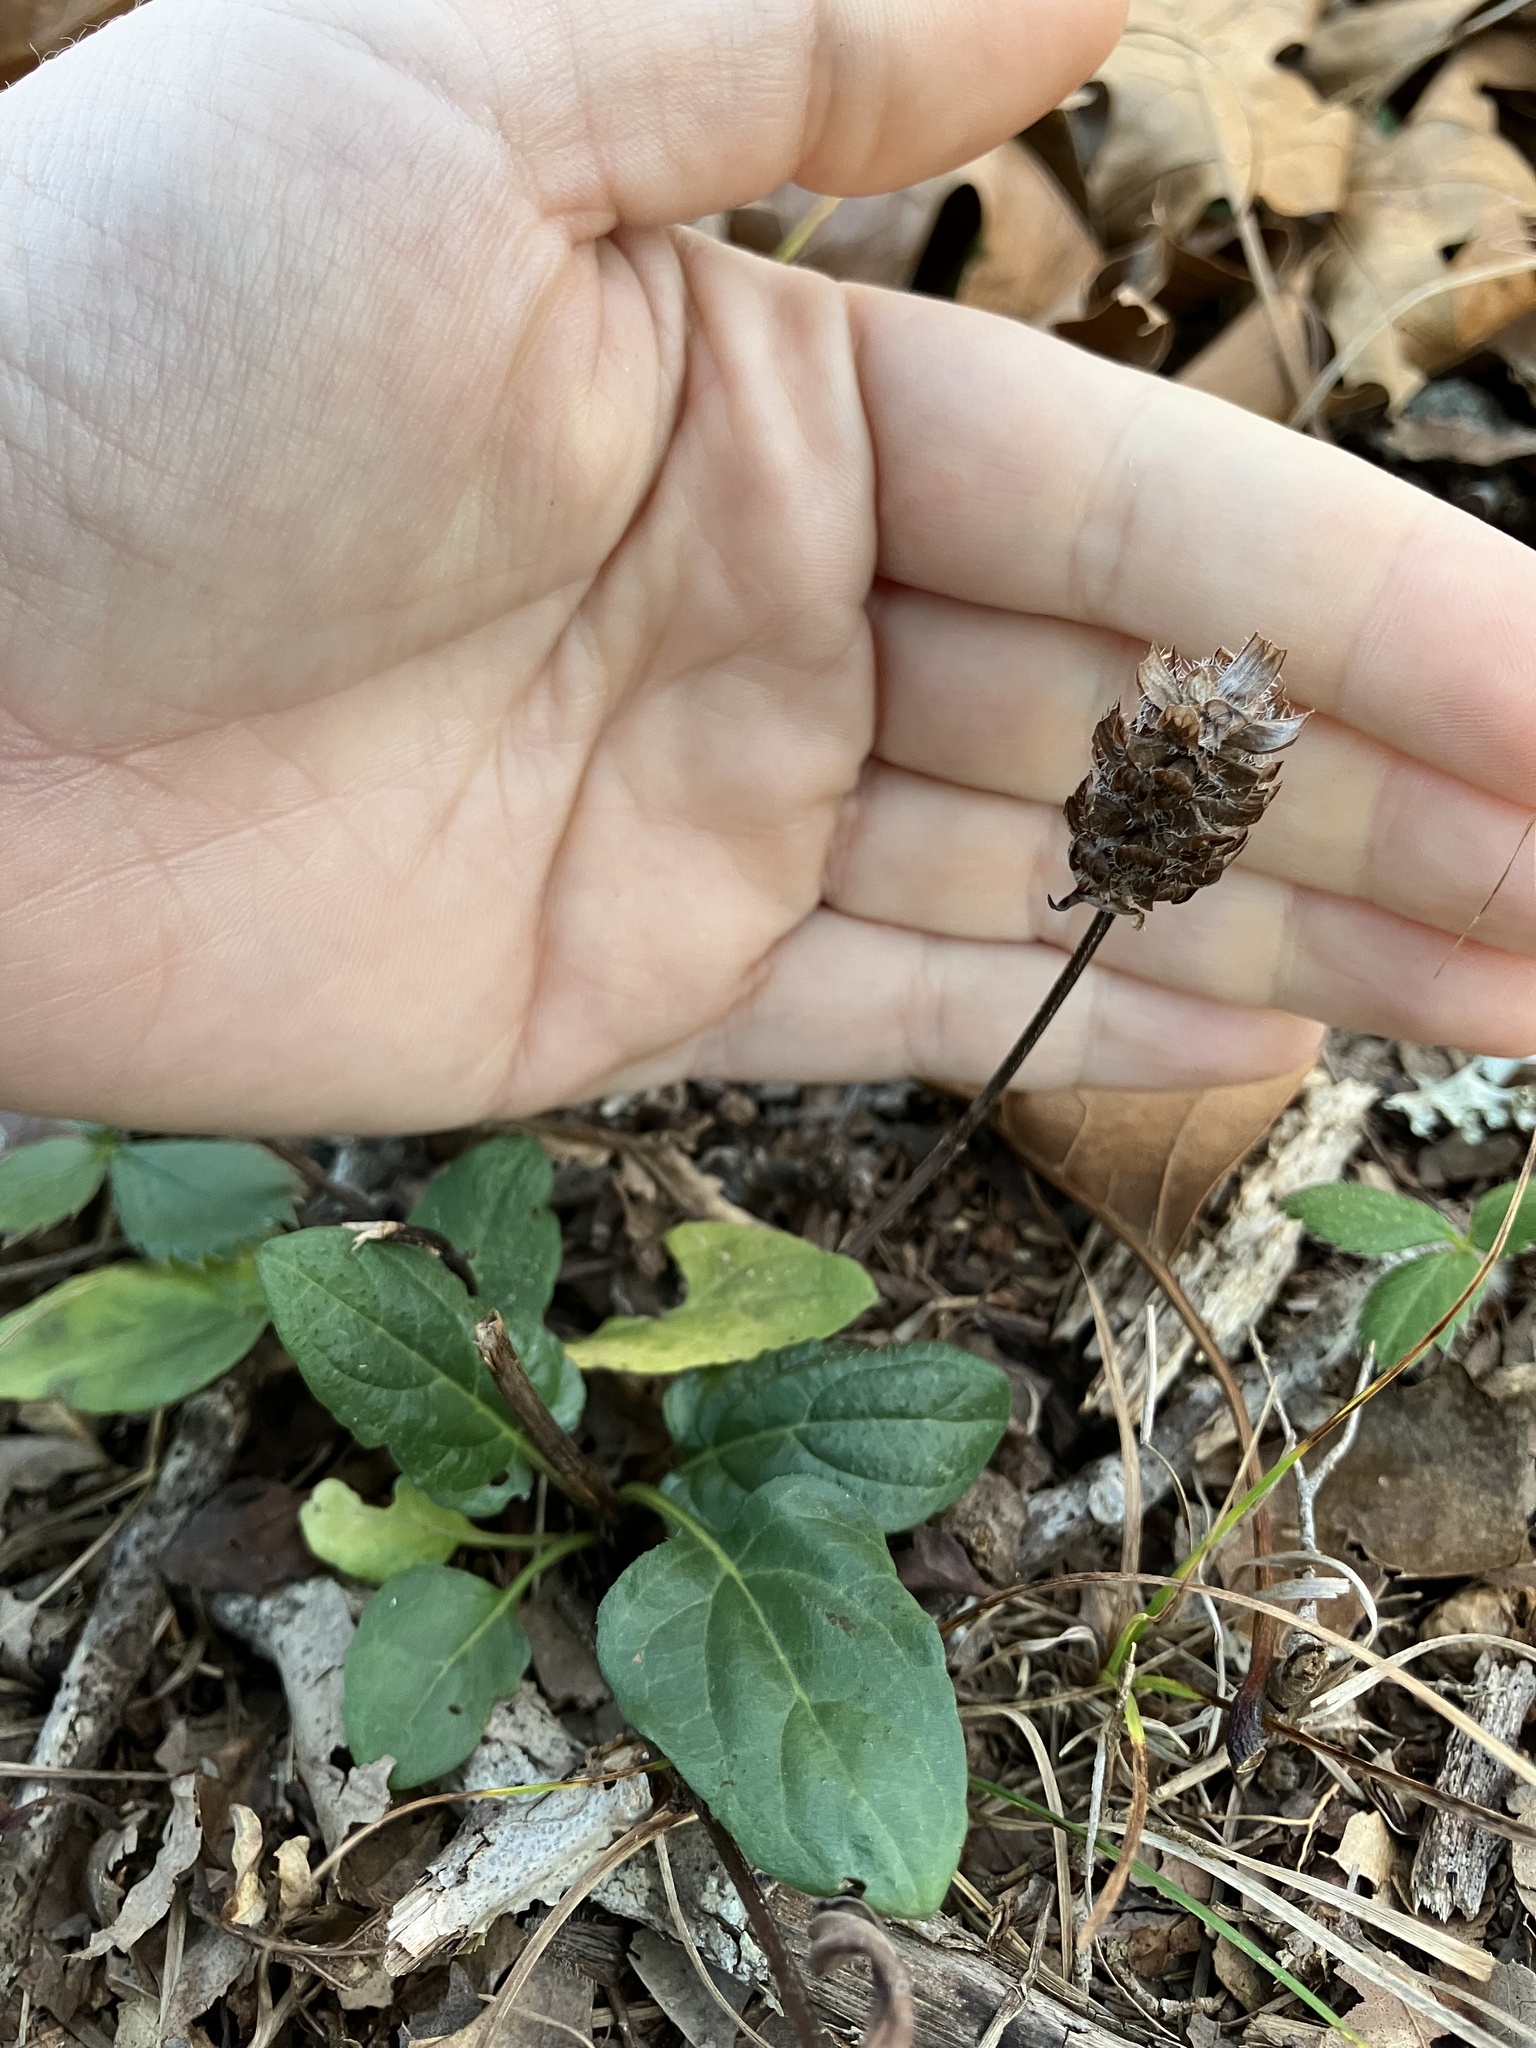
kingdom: Plantae
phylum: Tracheophyta
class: Magnoliopsida
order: Lamiales
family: Lamiaceae
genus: Prunella
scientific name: Prunella vulgaris
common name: Heal-all
